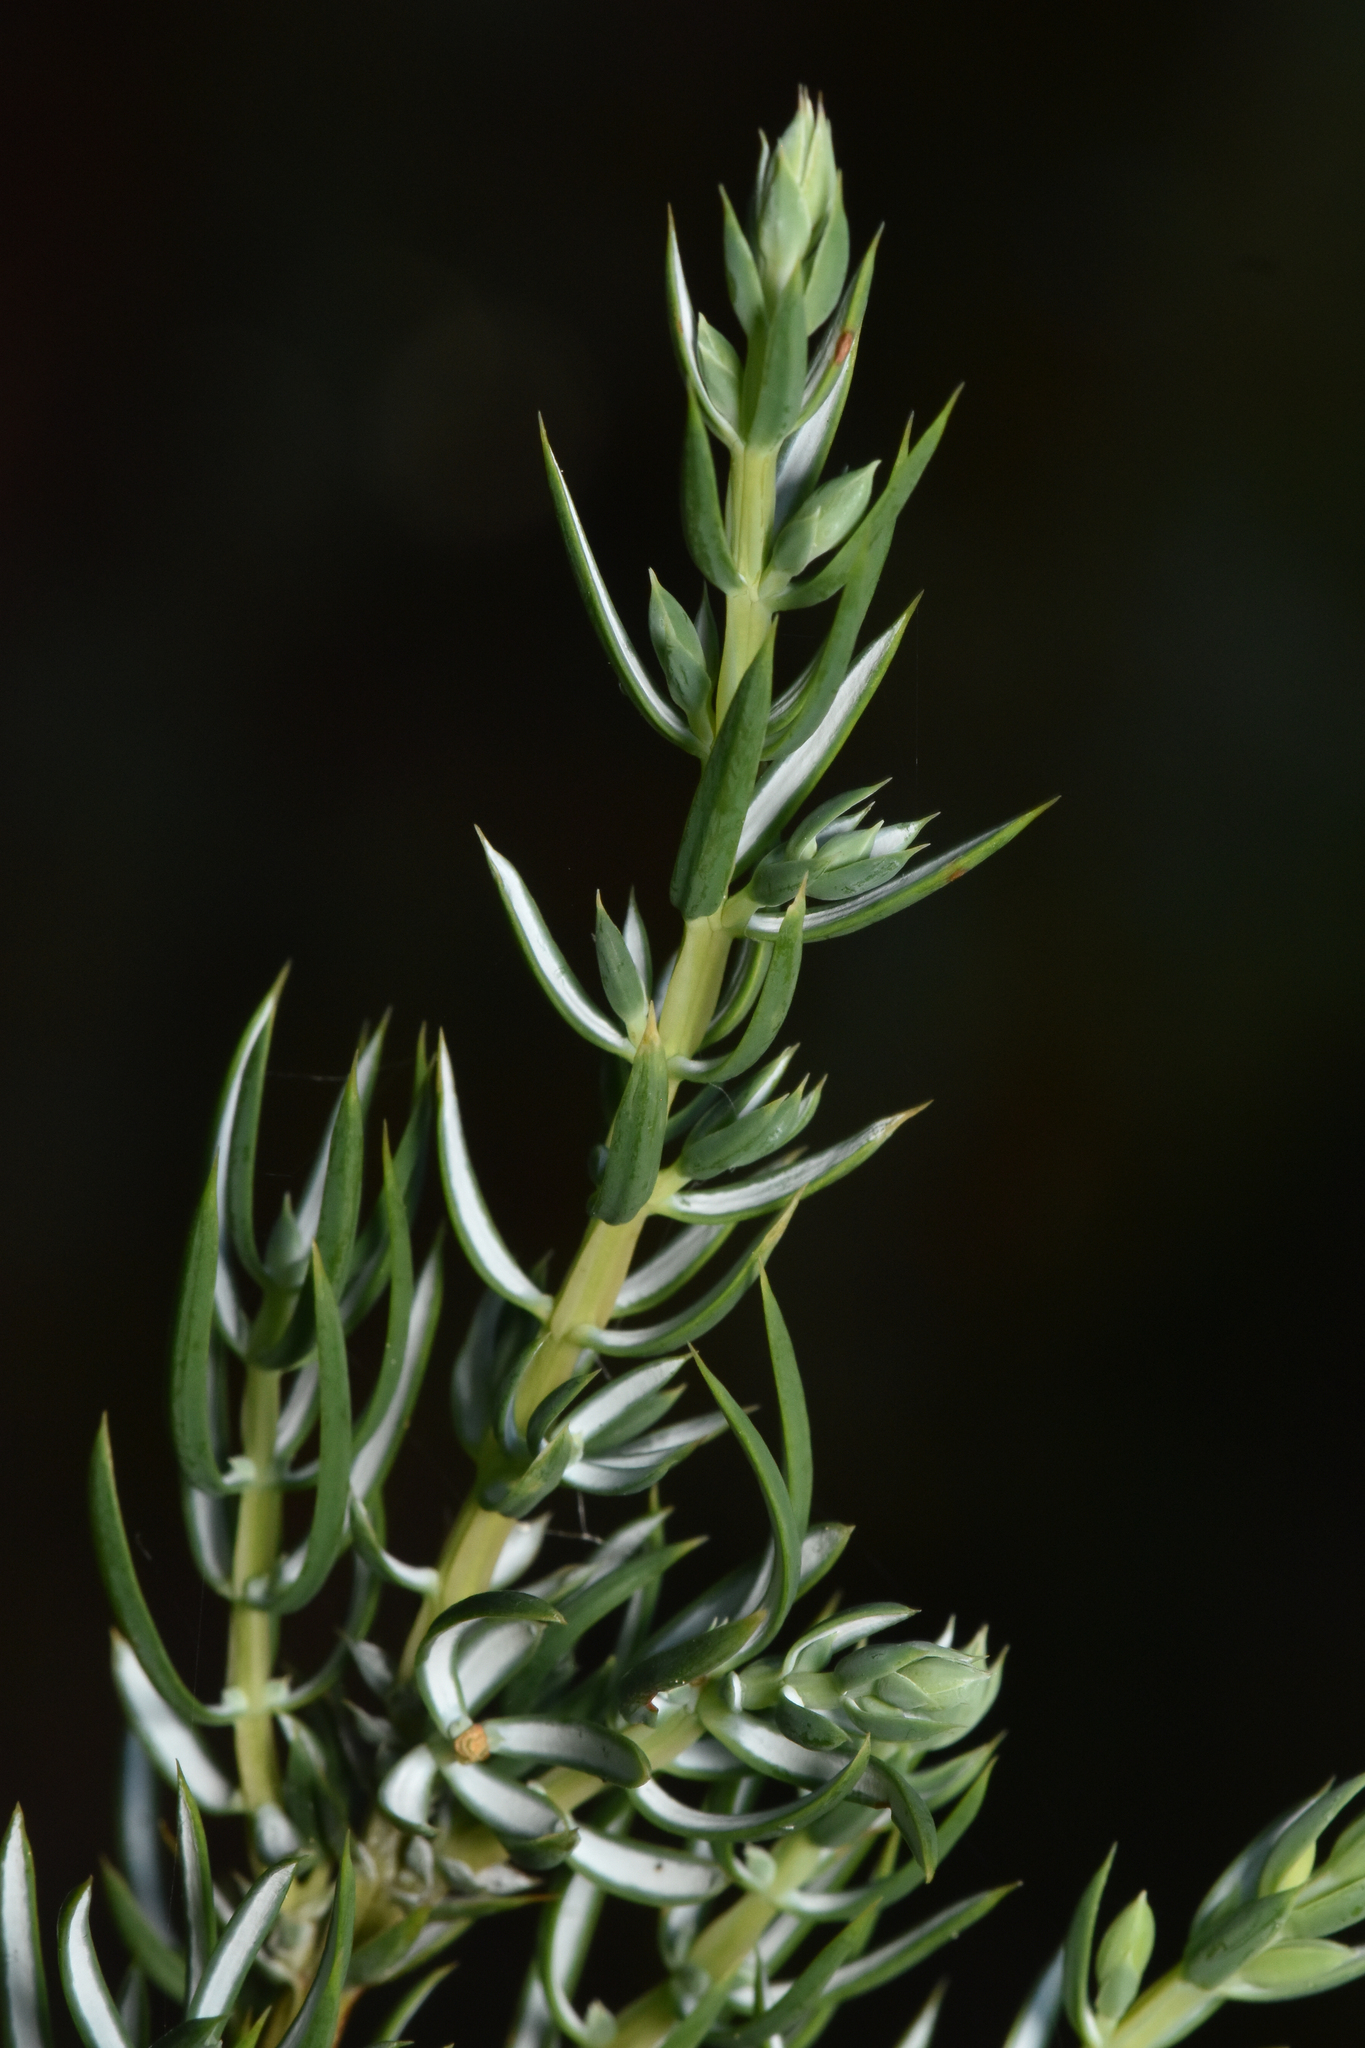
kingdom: Plantae
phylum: Tracheophyta
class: Pinopsida
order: Pinales
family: Cupressaceae
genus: Juniperus
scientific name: Juniperus communis
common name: Common juniper
